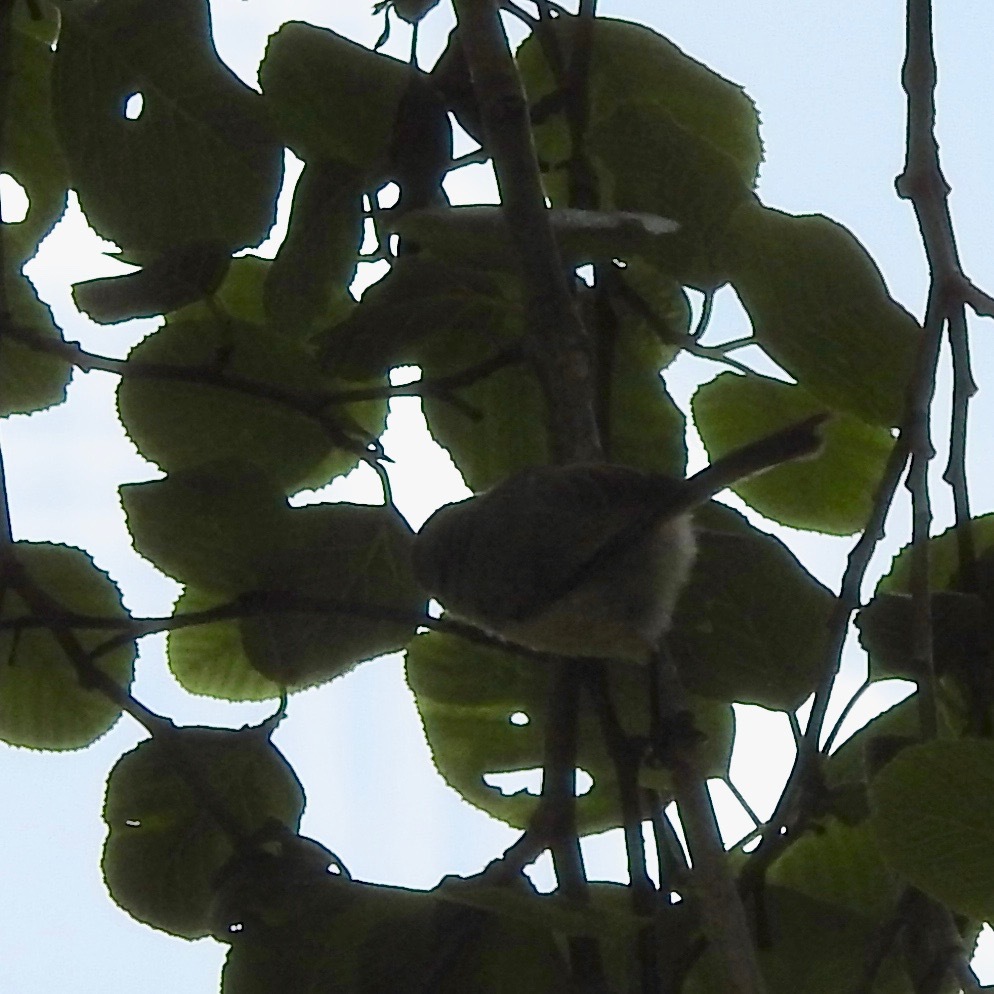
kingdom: Animalia
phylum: Chordata
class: Aves
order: Passeriformes
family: Aegithalidae
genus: Psaltriparus
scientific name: Psaltriparus minimus
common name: American bushtit
